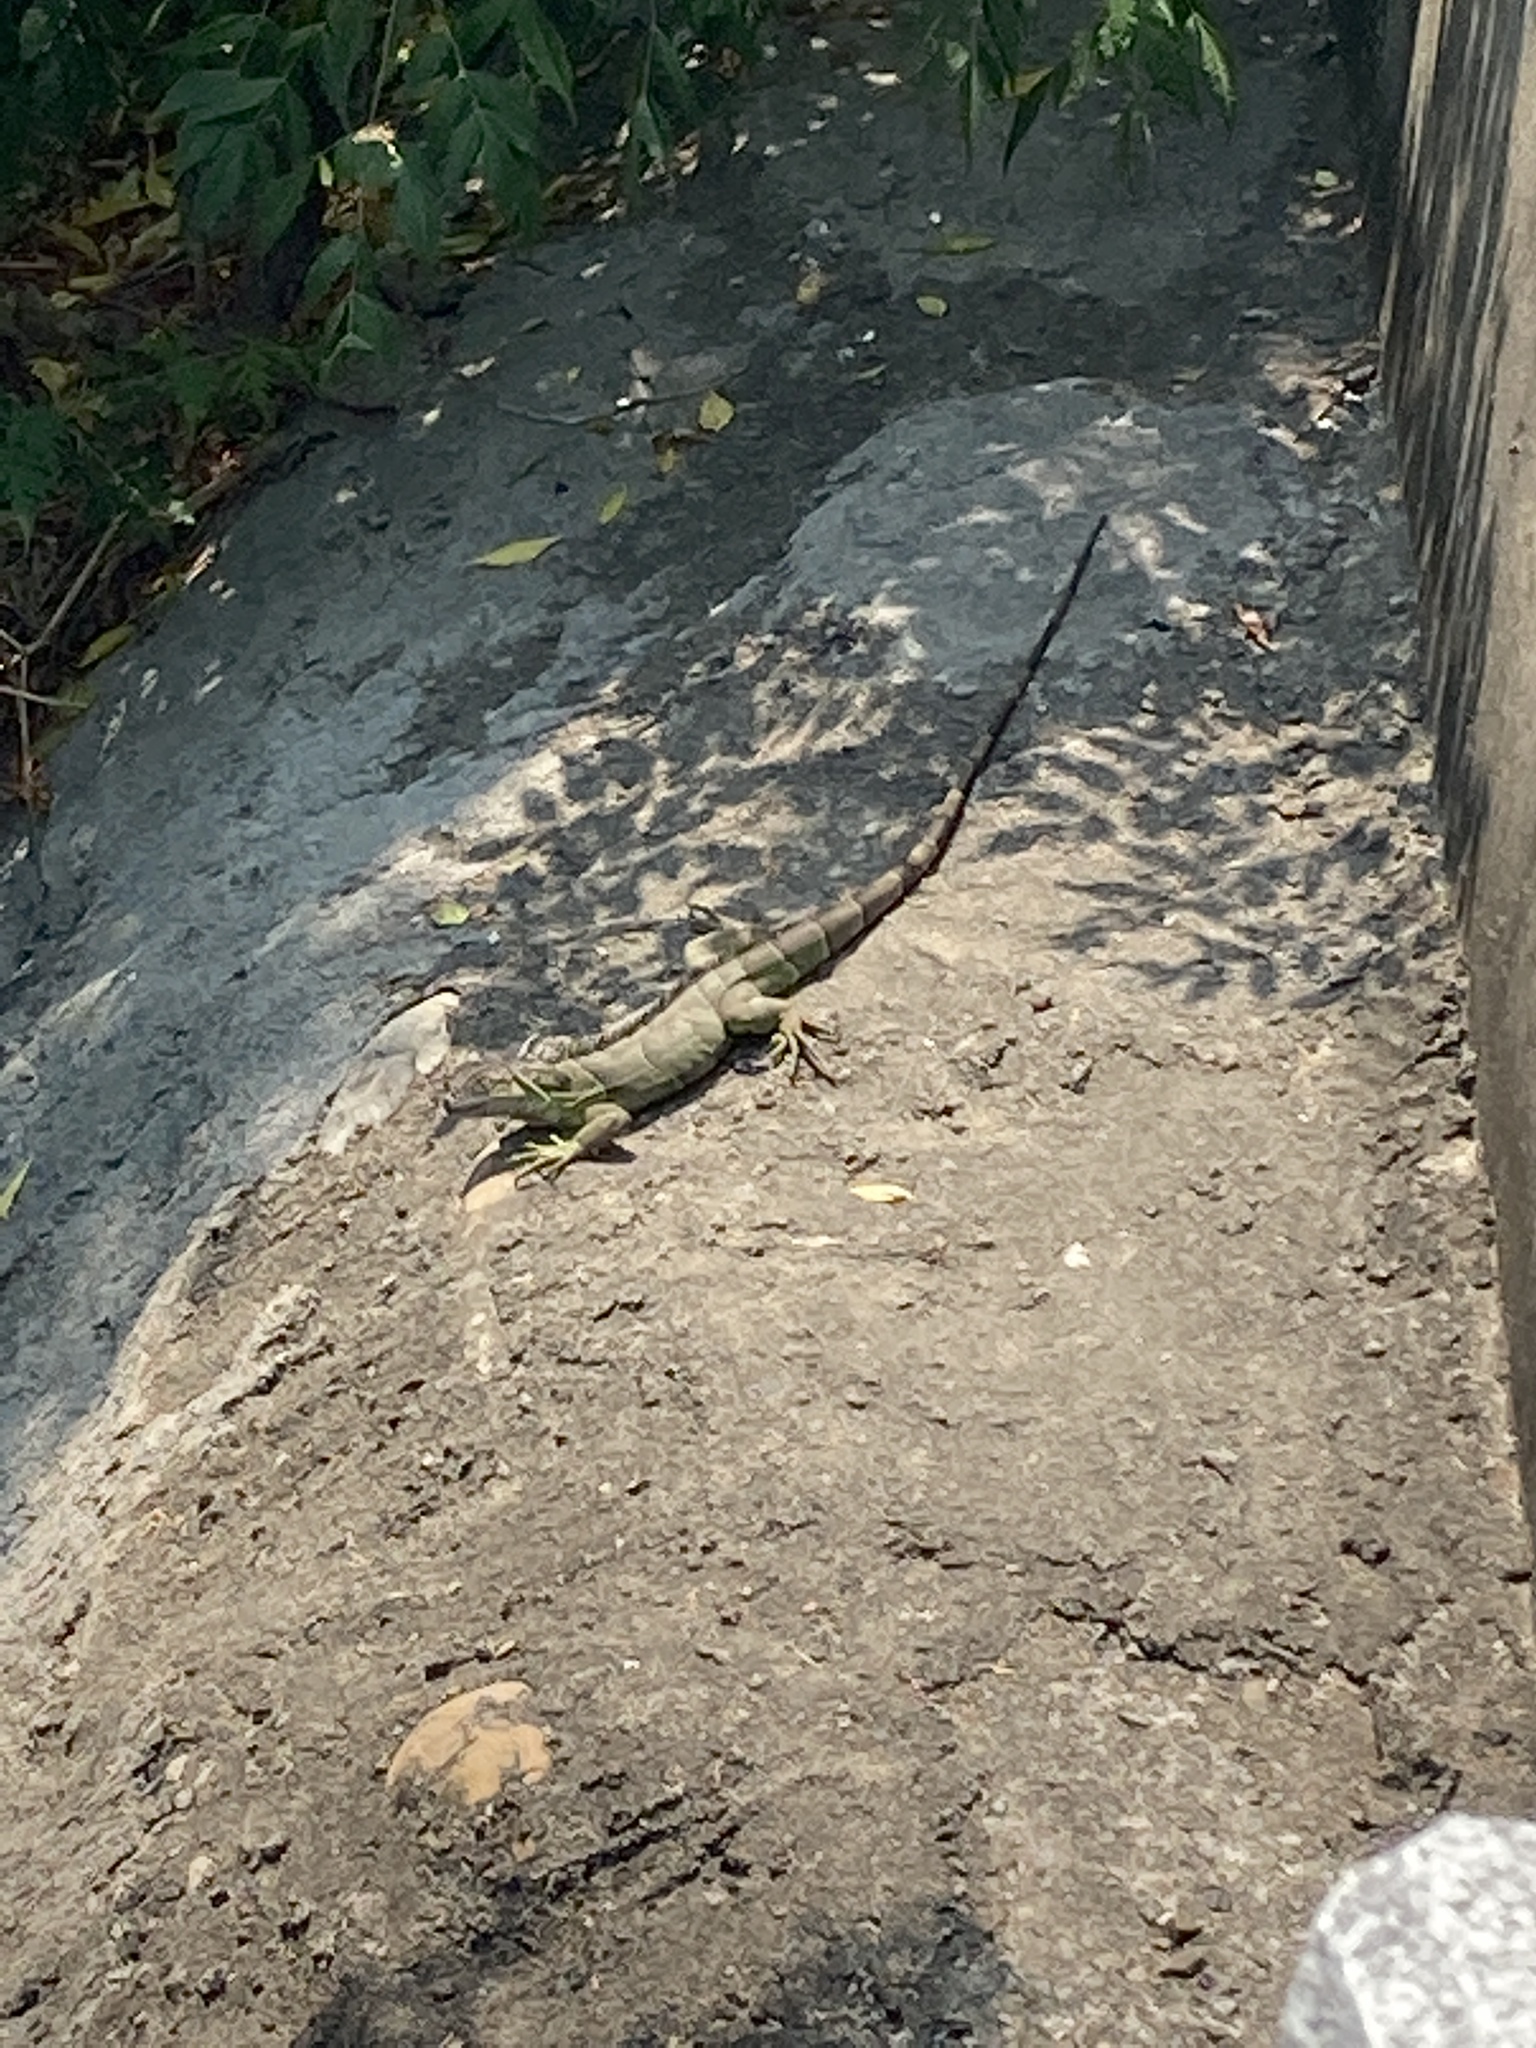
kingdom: Animalia
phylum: Chordata
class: Squamata
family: Iguanidae
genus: Iguana
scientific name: Iguana iguana
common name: Green iguana
